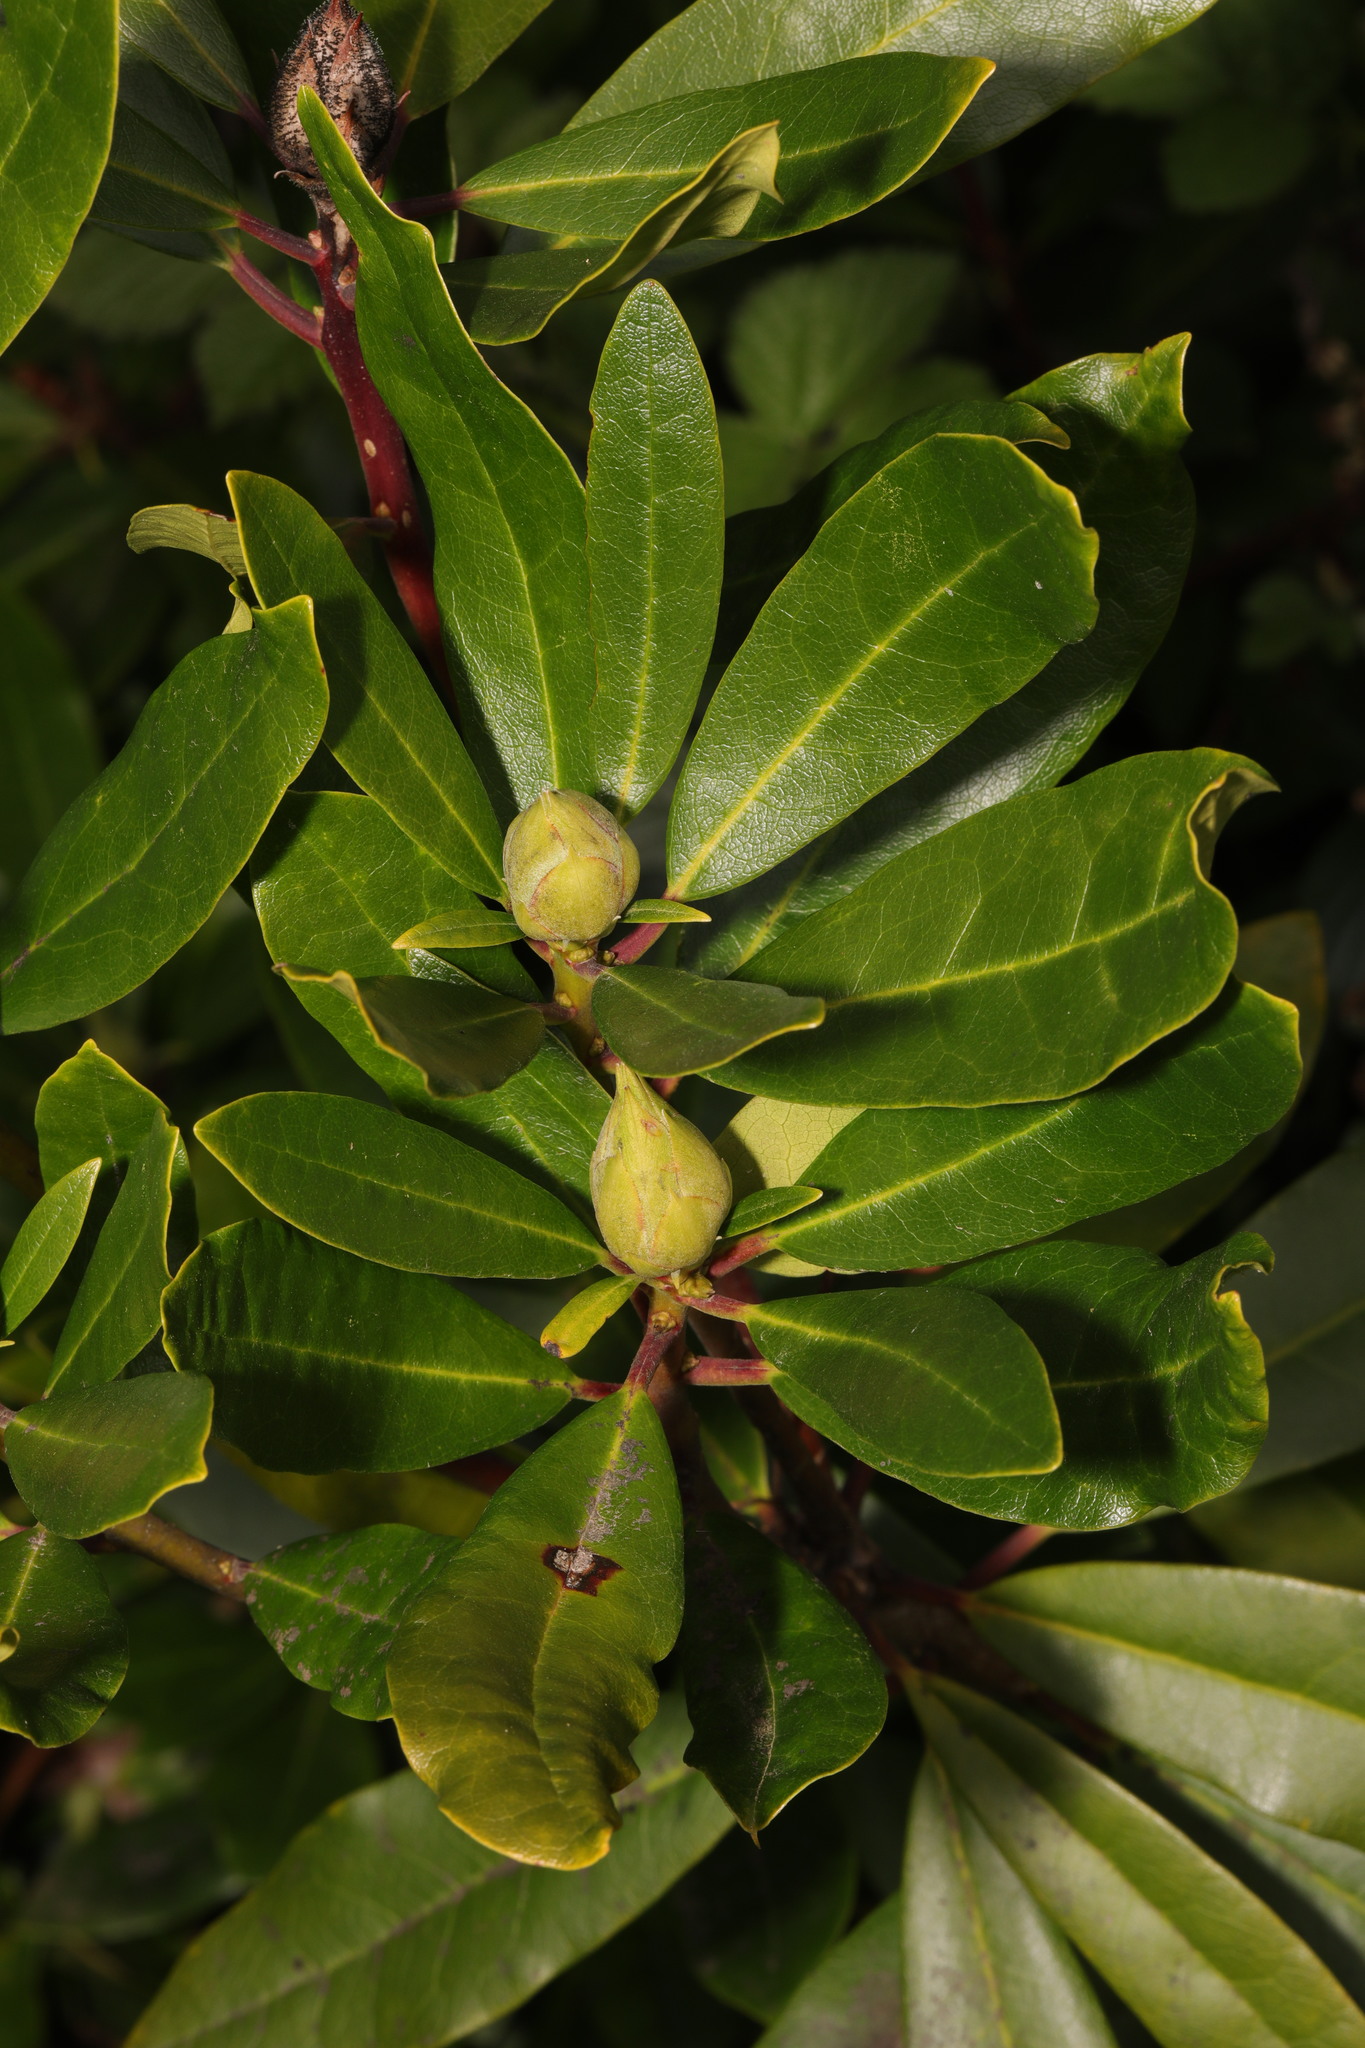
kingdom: Plantae
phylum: Tracheophyta
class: Magnoliopsida
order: Ericales
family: Ericaceae
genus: Rhododendron
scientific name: Rhododendron ponticum
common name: Rhododendron
